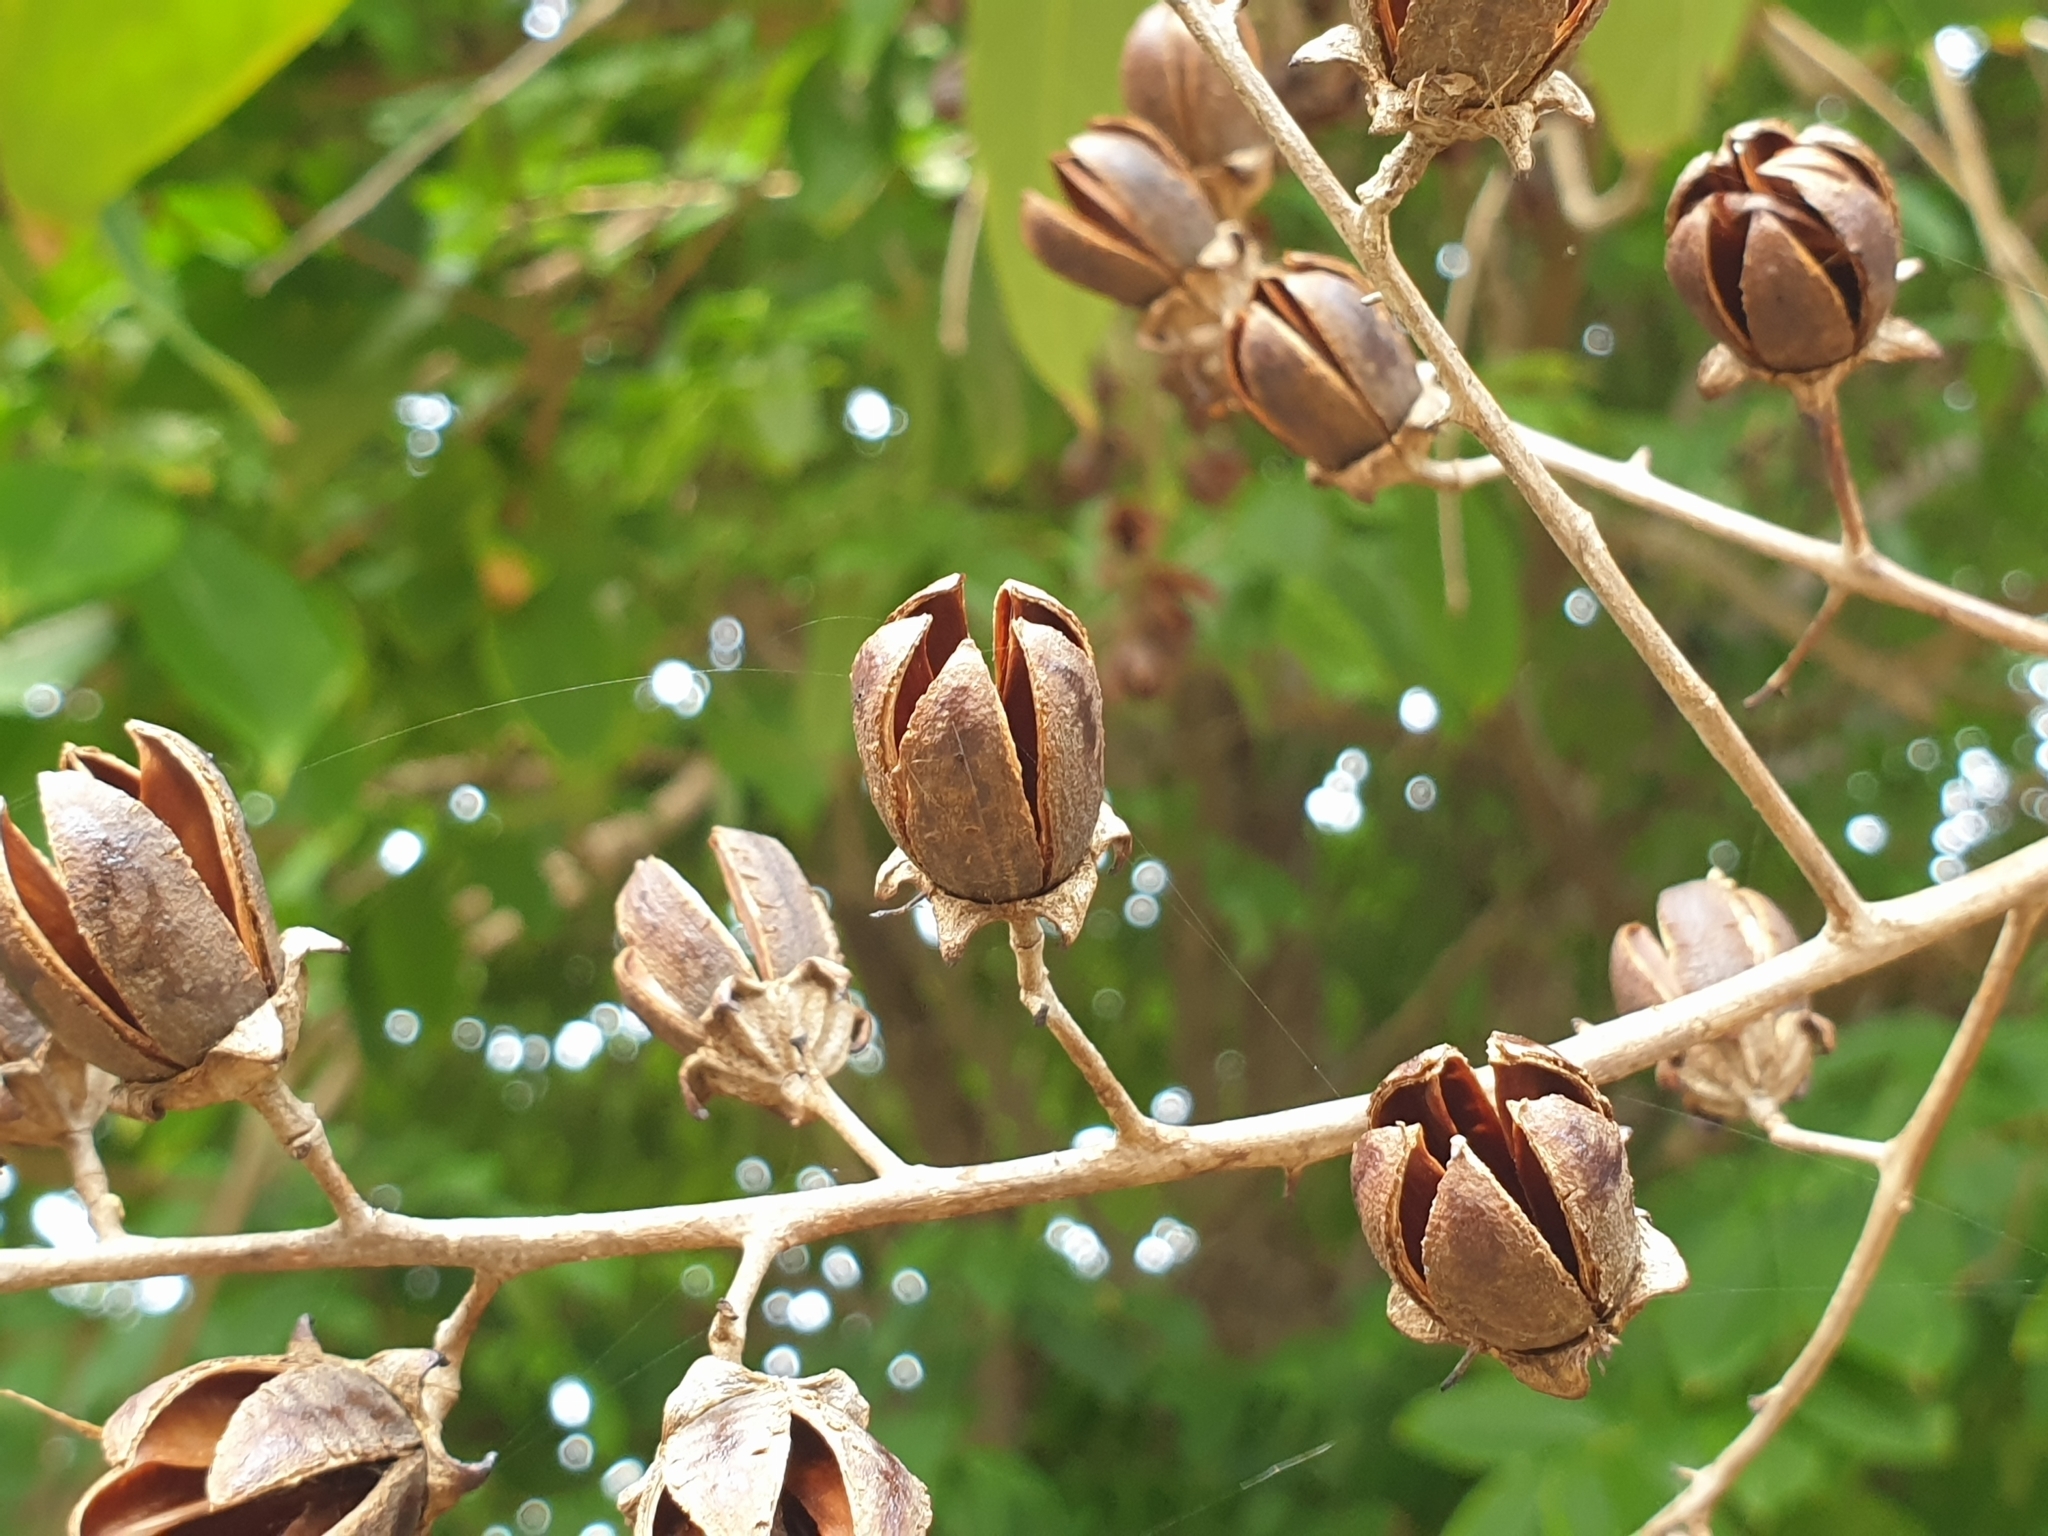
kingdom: Plantae
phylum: Tracheophyta
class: Magnoliopsida
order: Myrtales
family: Lythraceae
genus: Lagerstroemia
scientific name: Lagerstroemia speciosa
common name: Queen's crape-myrtle
